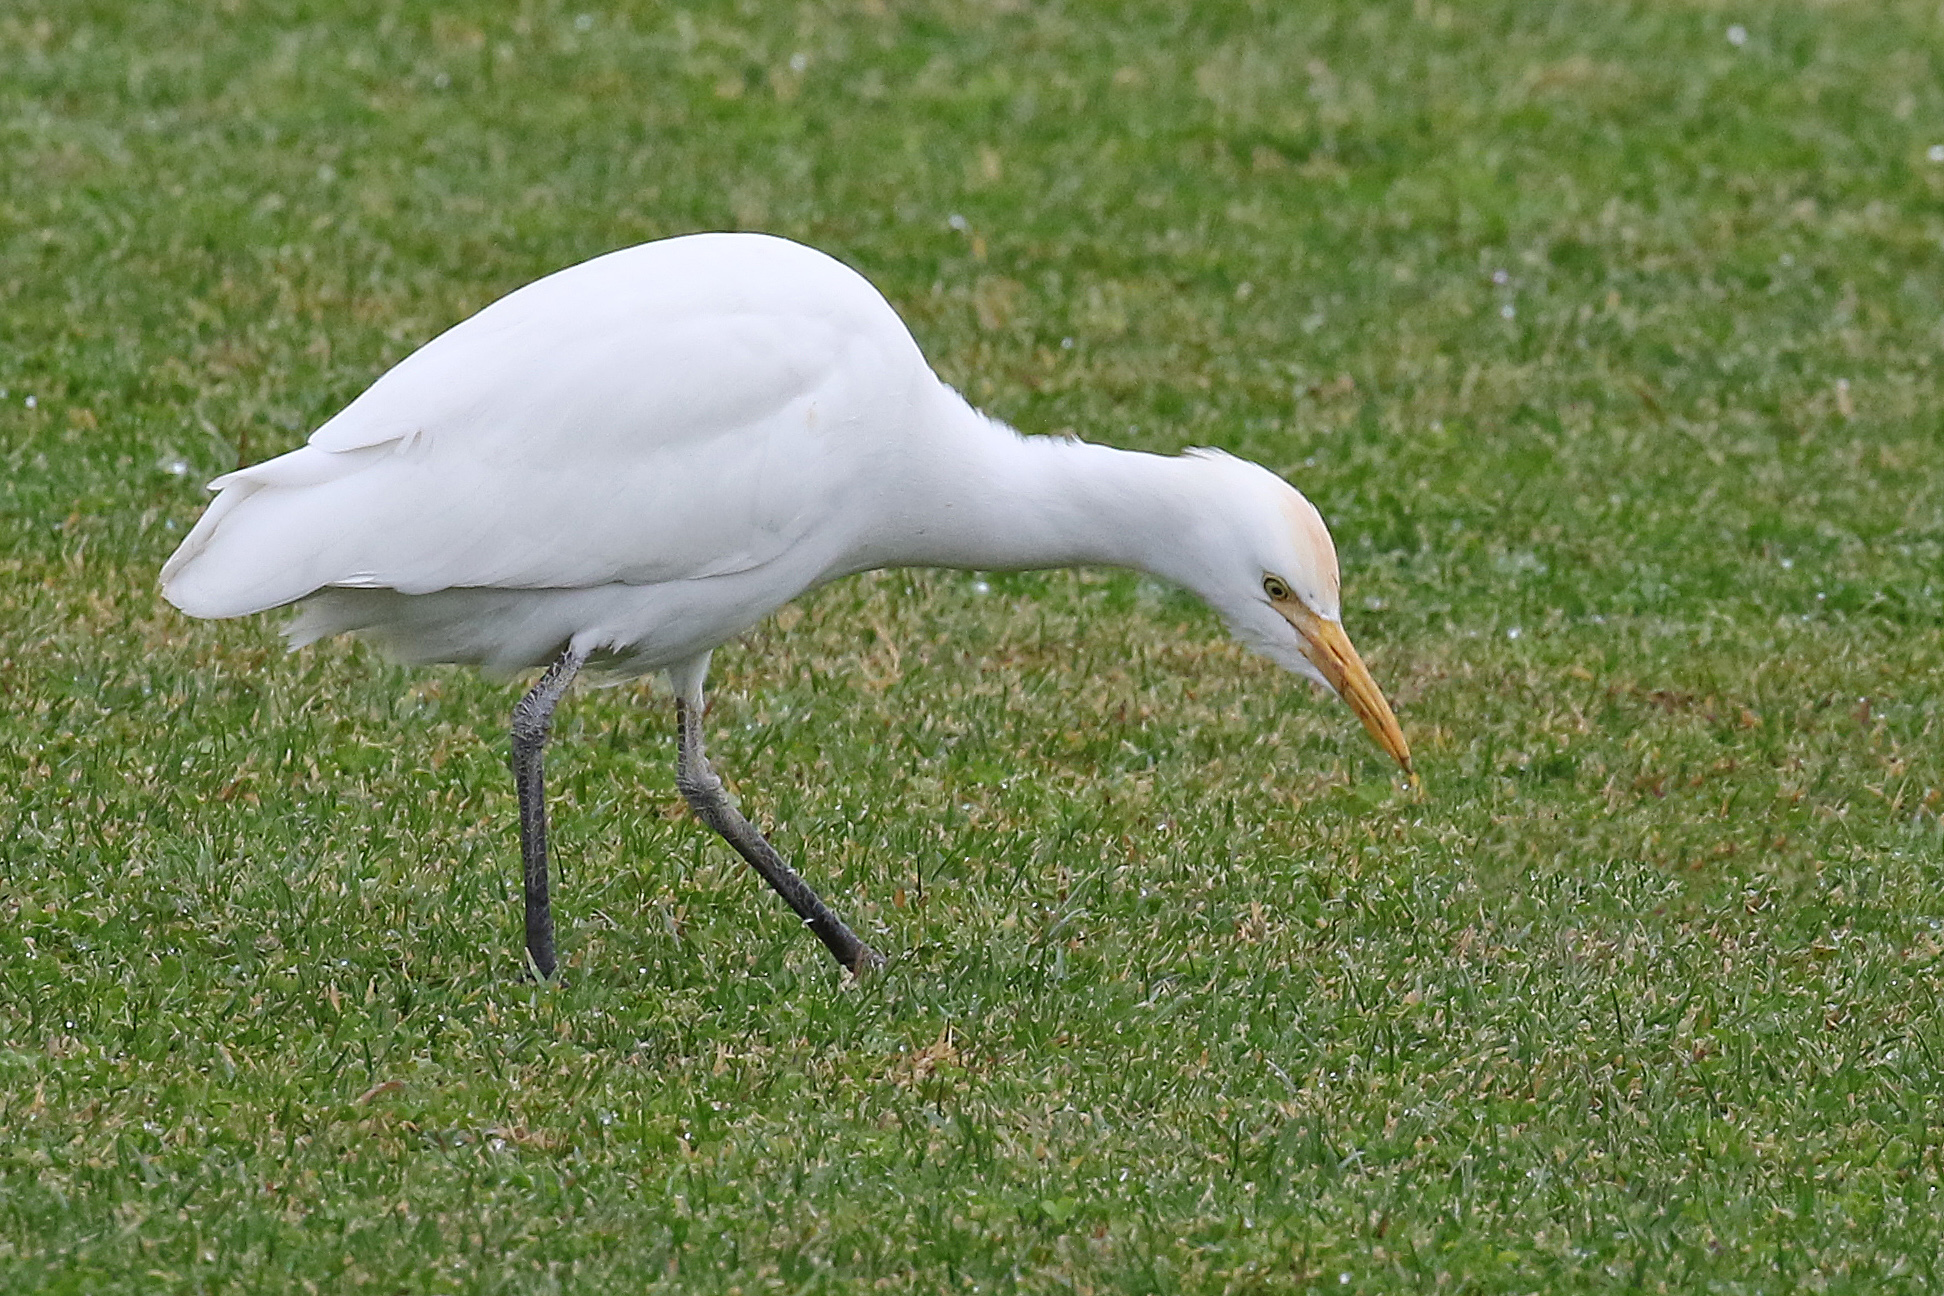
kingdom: Animalia
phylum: Chordata
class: Aves
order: Pelecaniformes
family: Ardeidae
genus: Bubulcus
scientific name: Bubulcus ibis
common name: Cattle egret
